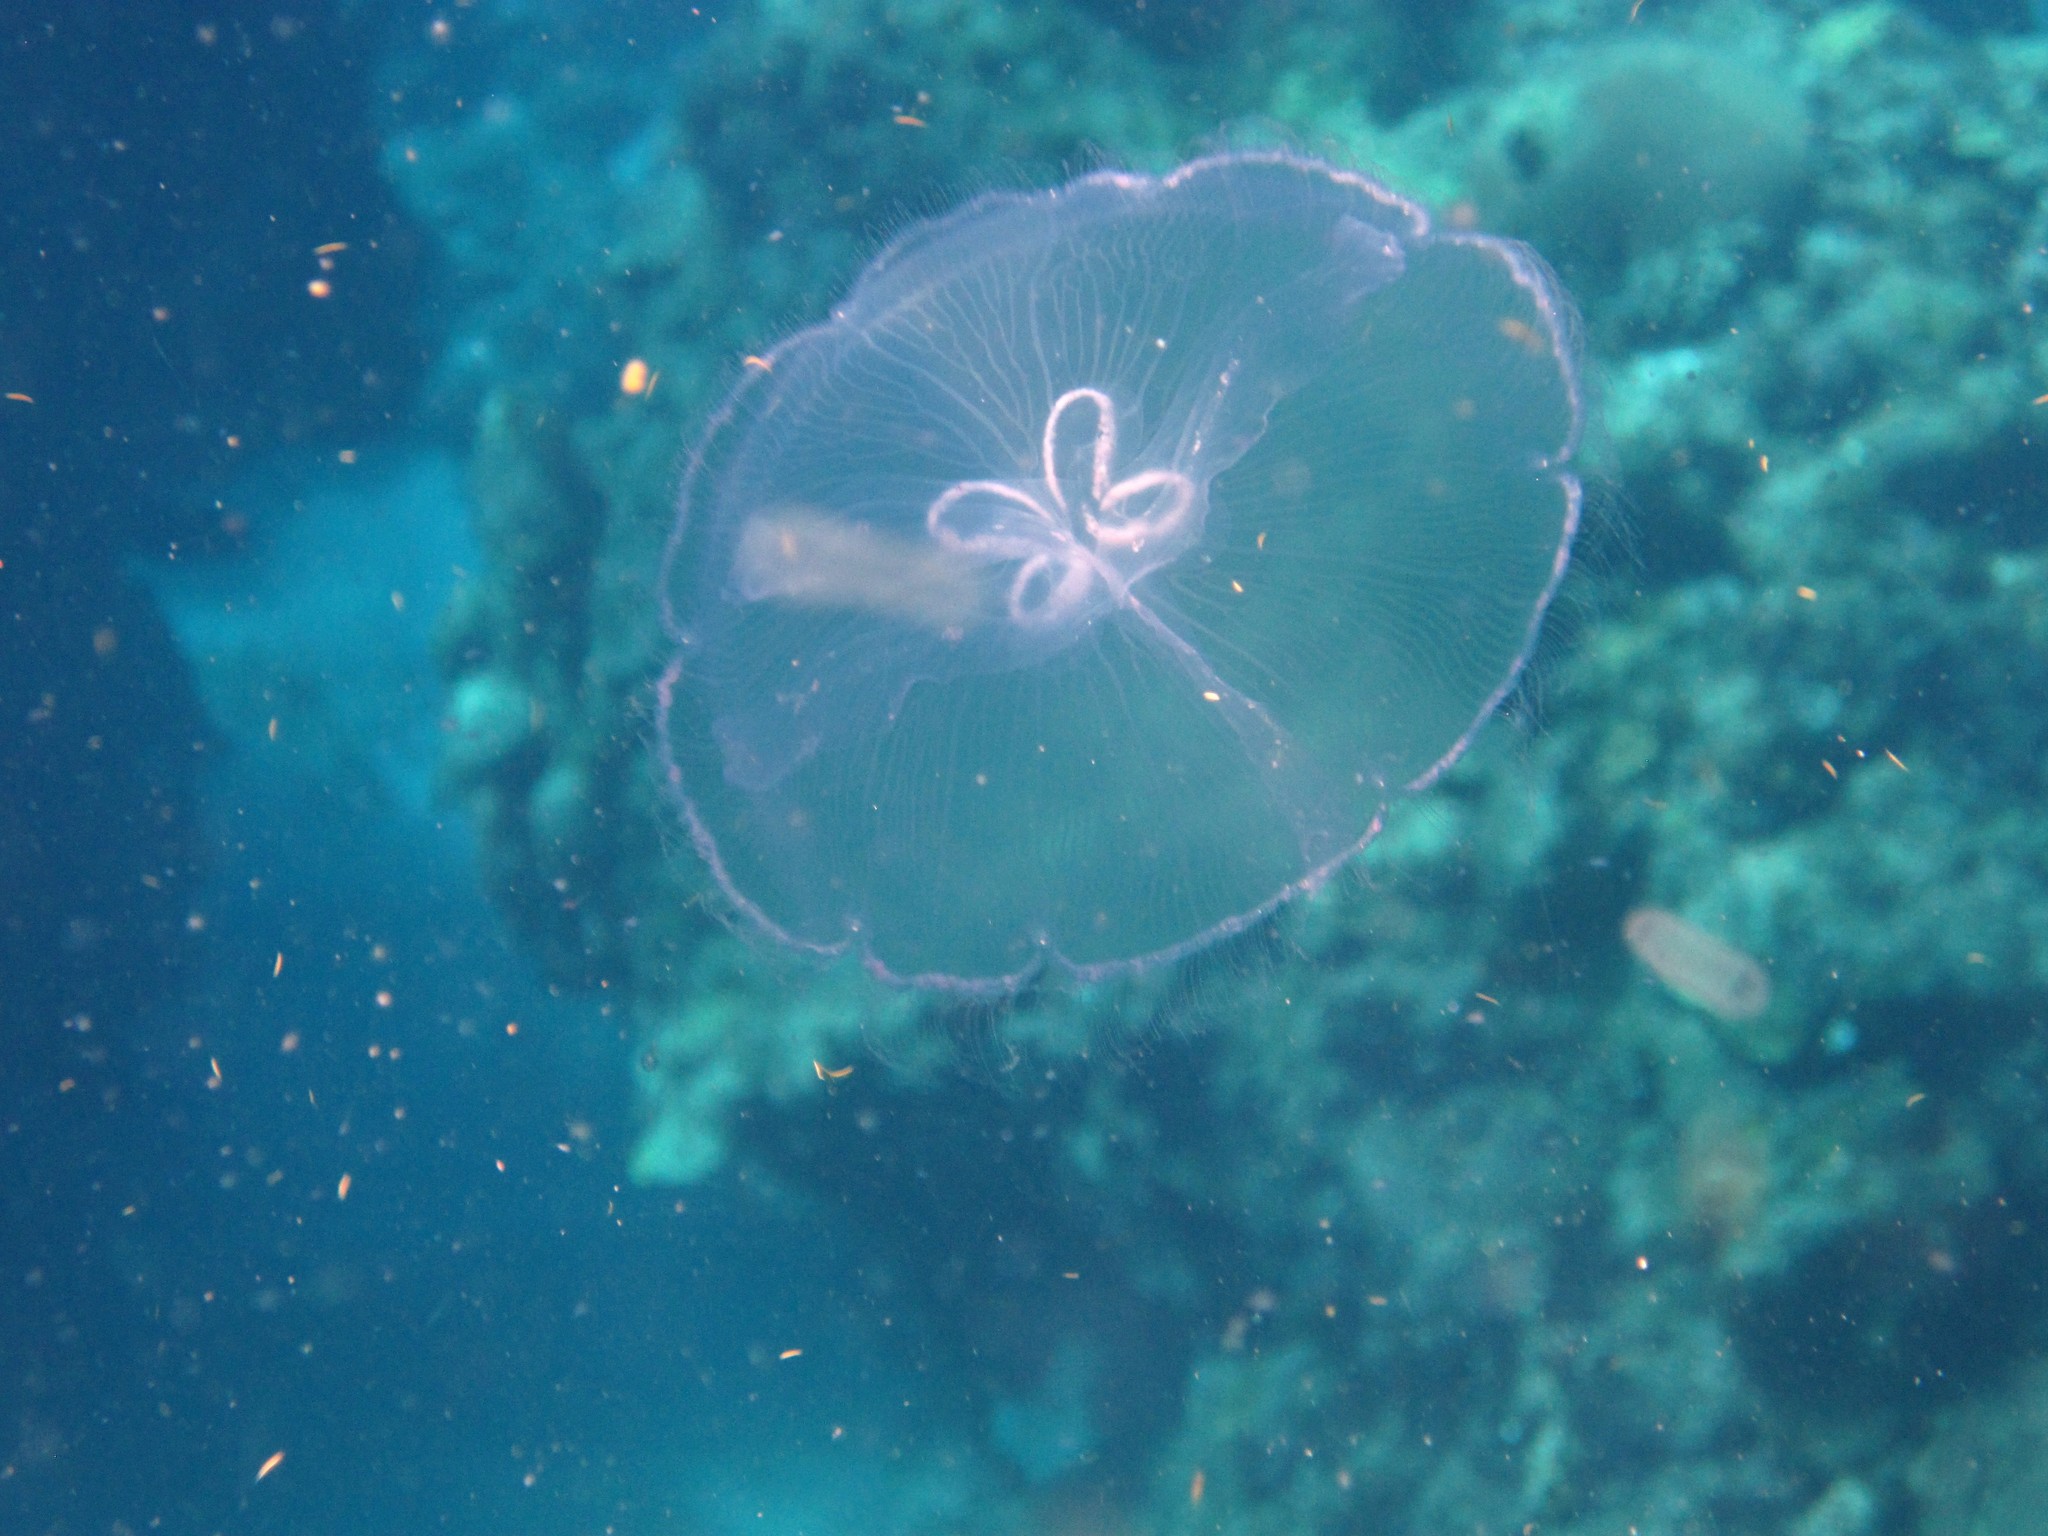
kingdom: Animalia
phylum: Cnidaria
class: Scyphozoa
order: Semaeostomeae
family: Ulmaridae
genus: Aurelia
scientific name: Aurelia marginalis
